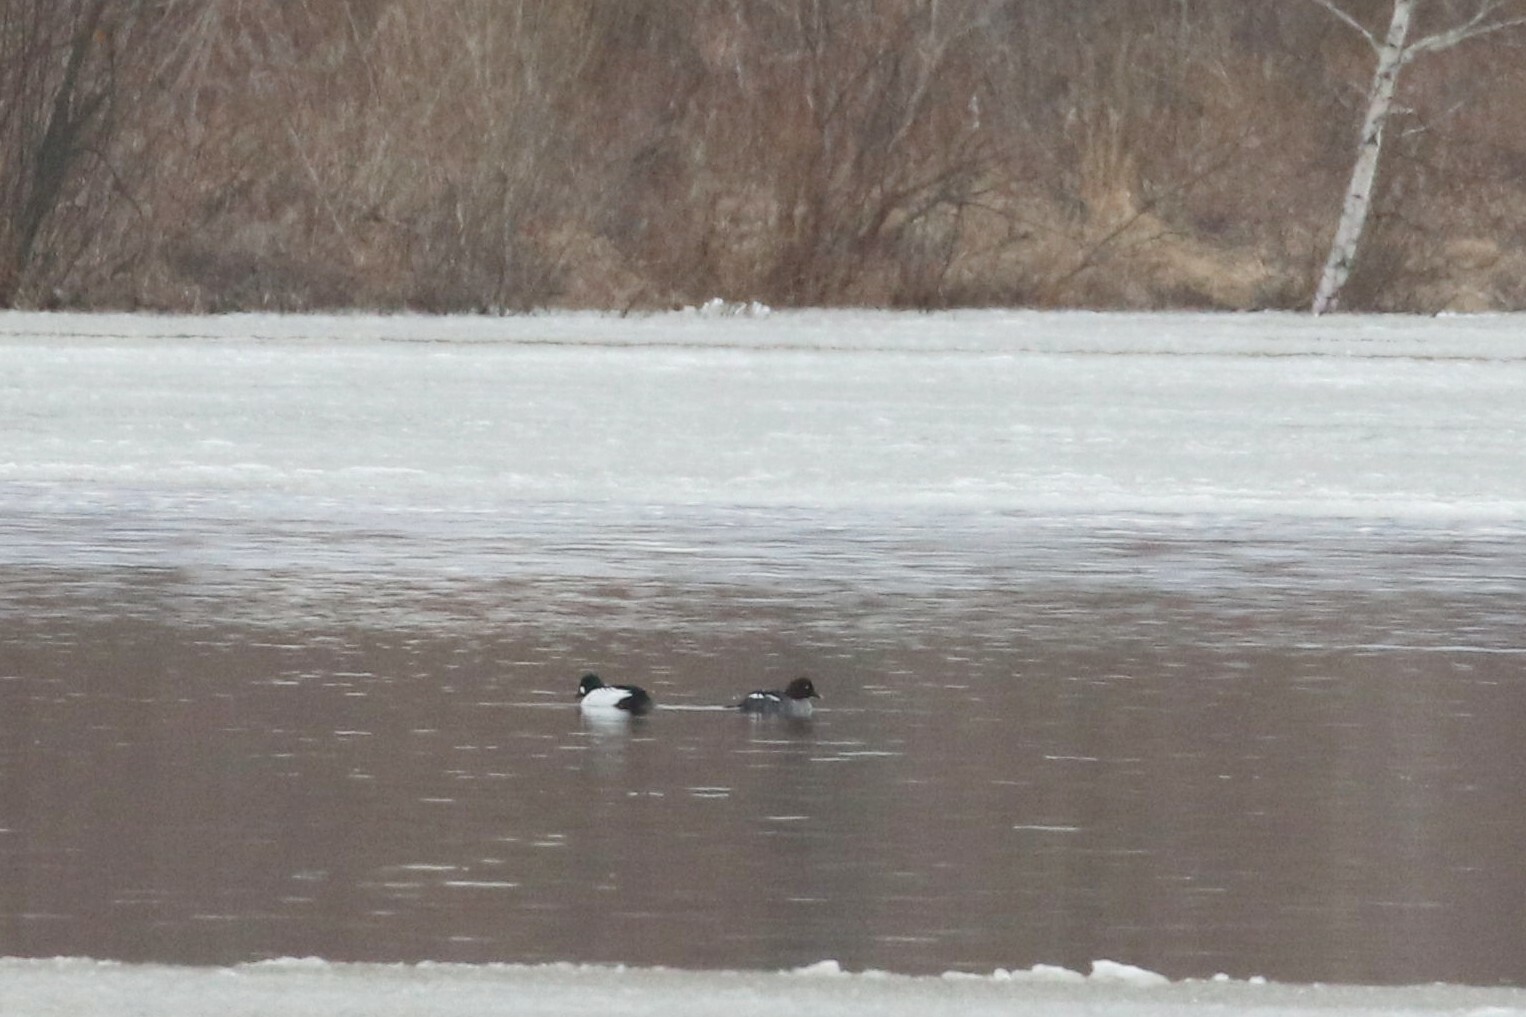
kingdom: Animalia
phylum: Chordata
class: Aves
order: Anseriformes
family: Anatidae
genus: Bucephala
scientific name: Bucephala clangula
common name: Common goldeneye
